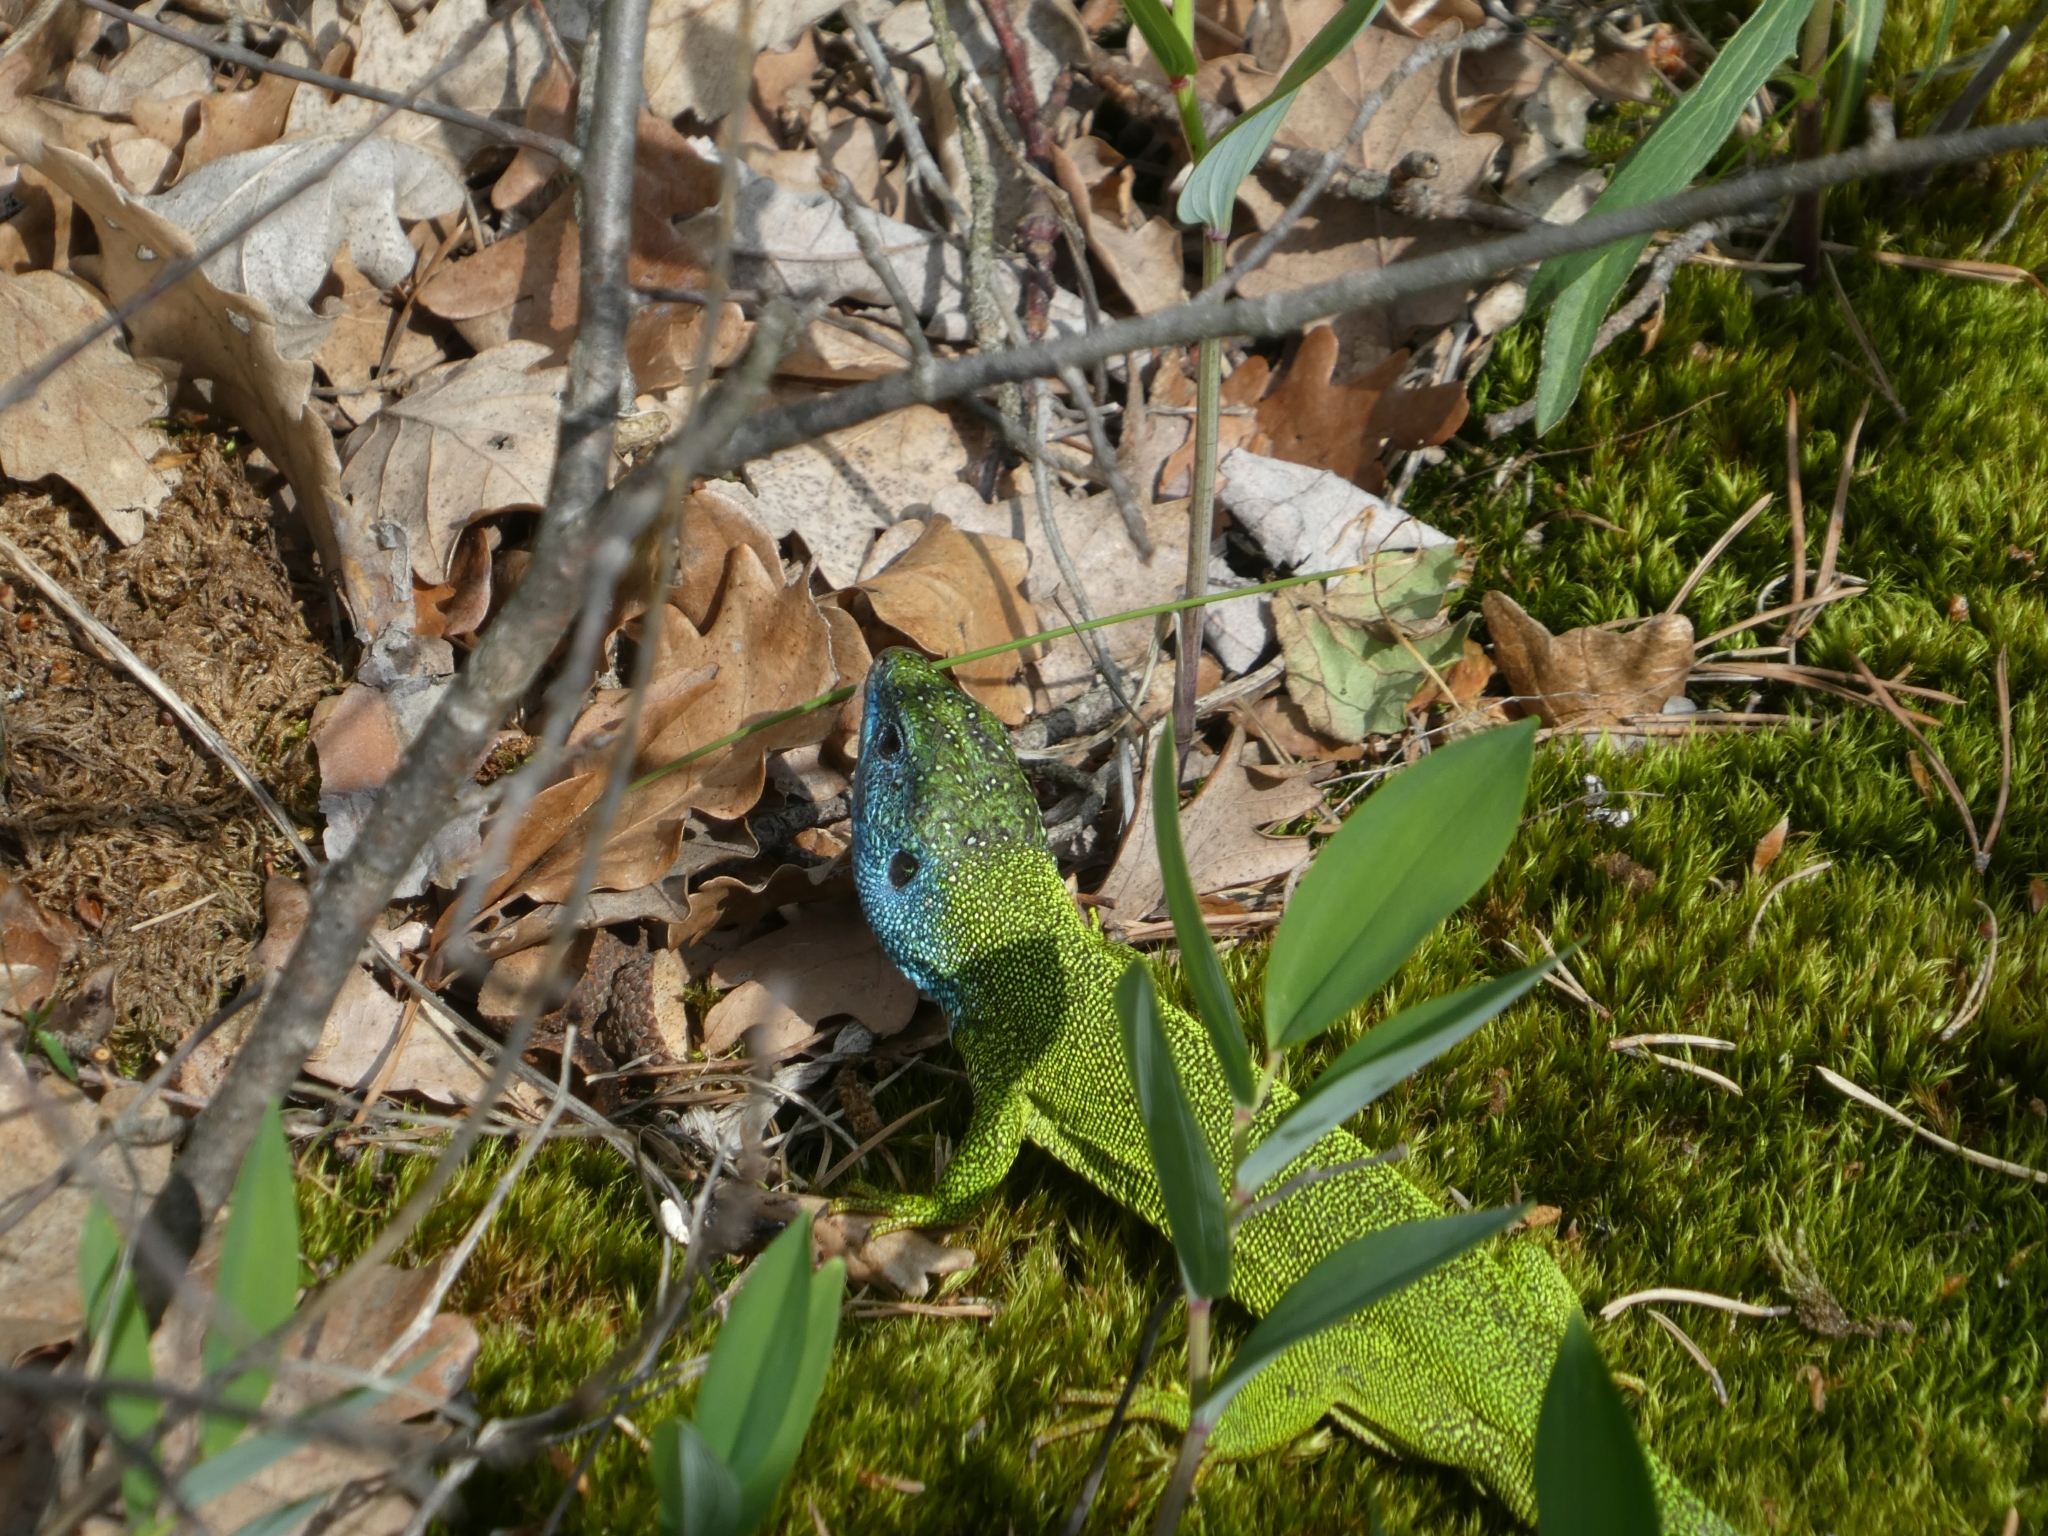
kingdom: Animalia
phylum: Chordata
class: Squamata
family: Lacertidae
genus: Lacerta
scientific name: Lacerta viridis
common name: European green lizard
